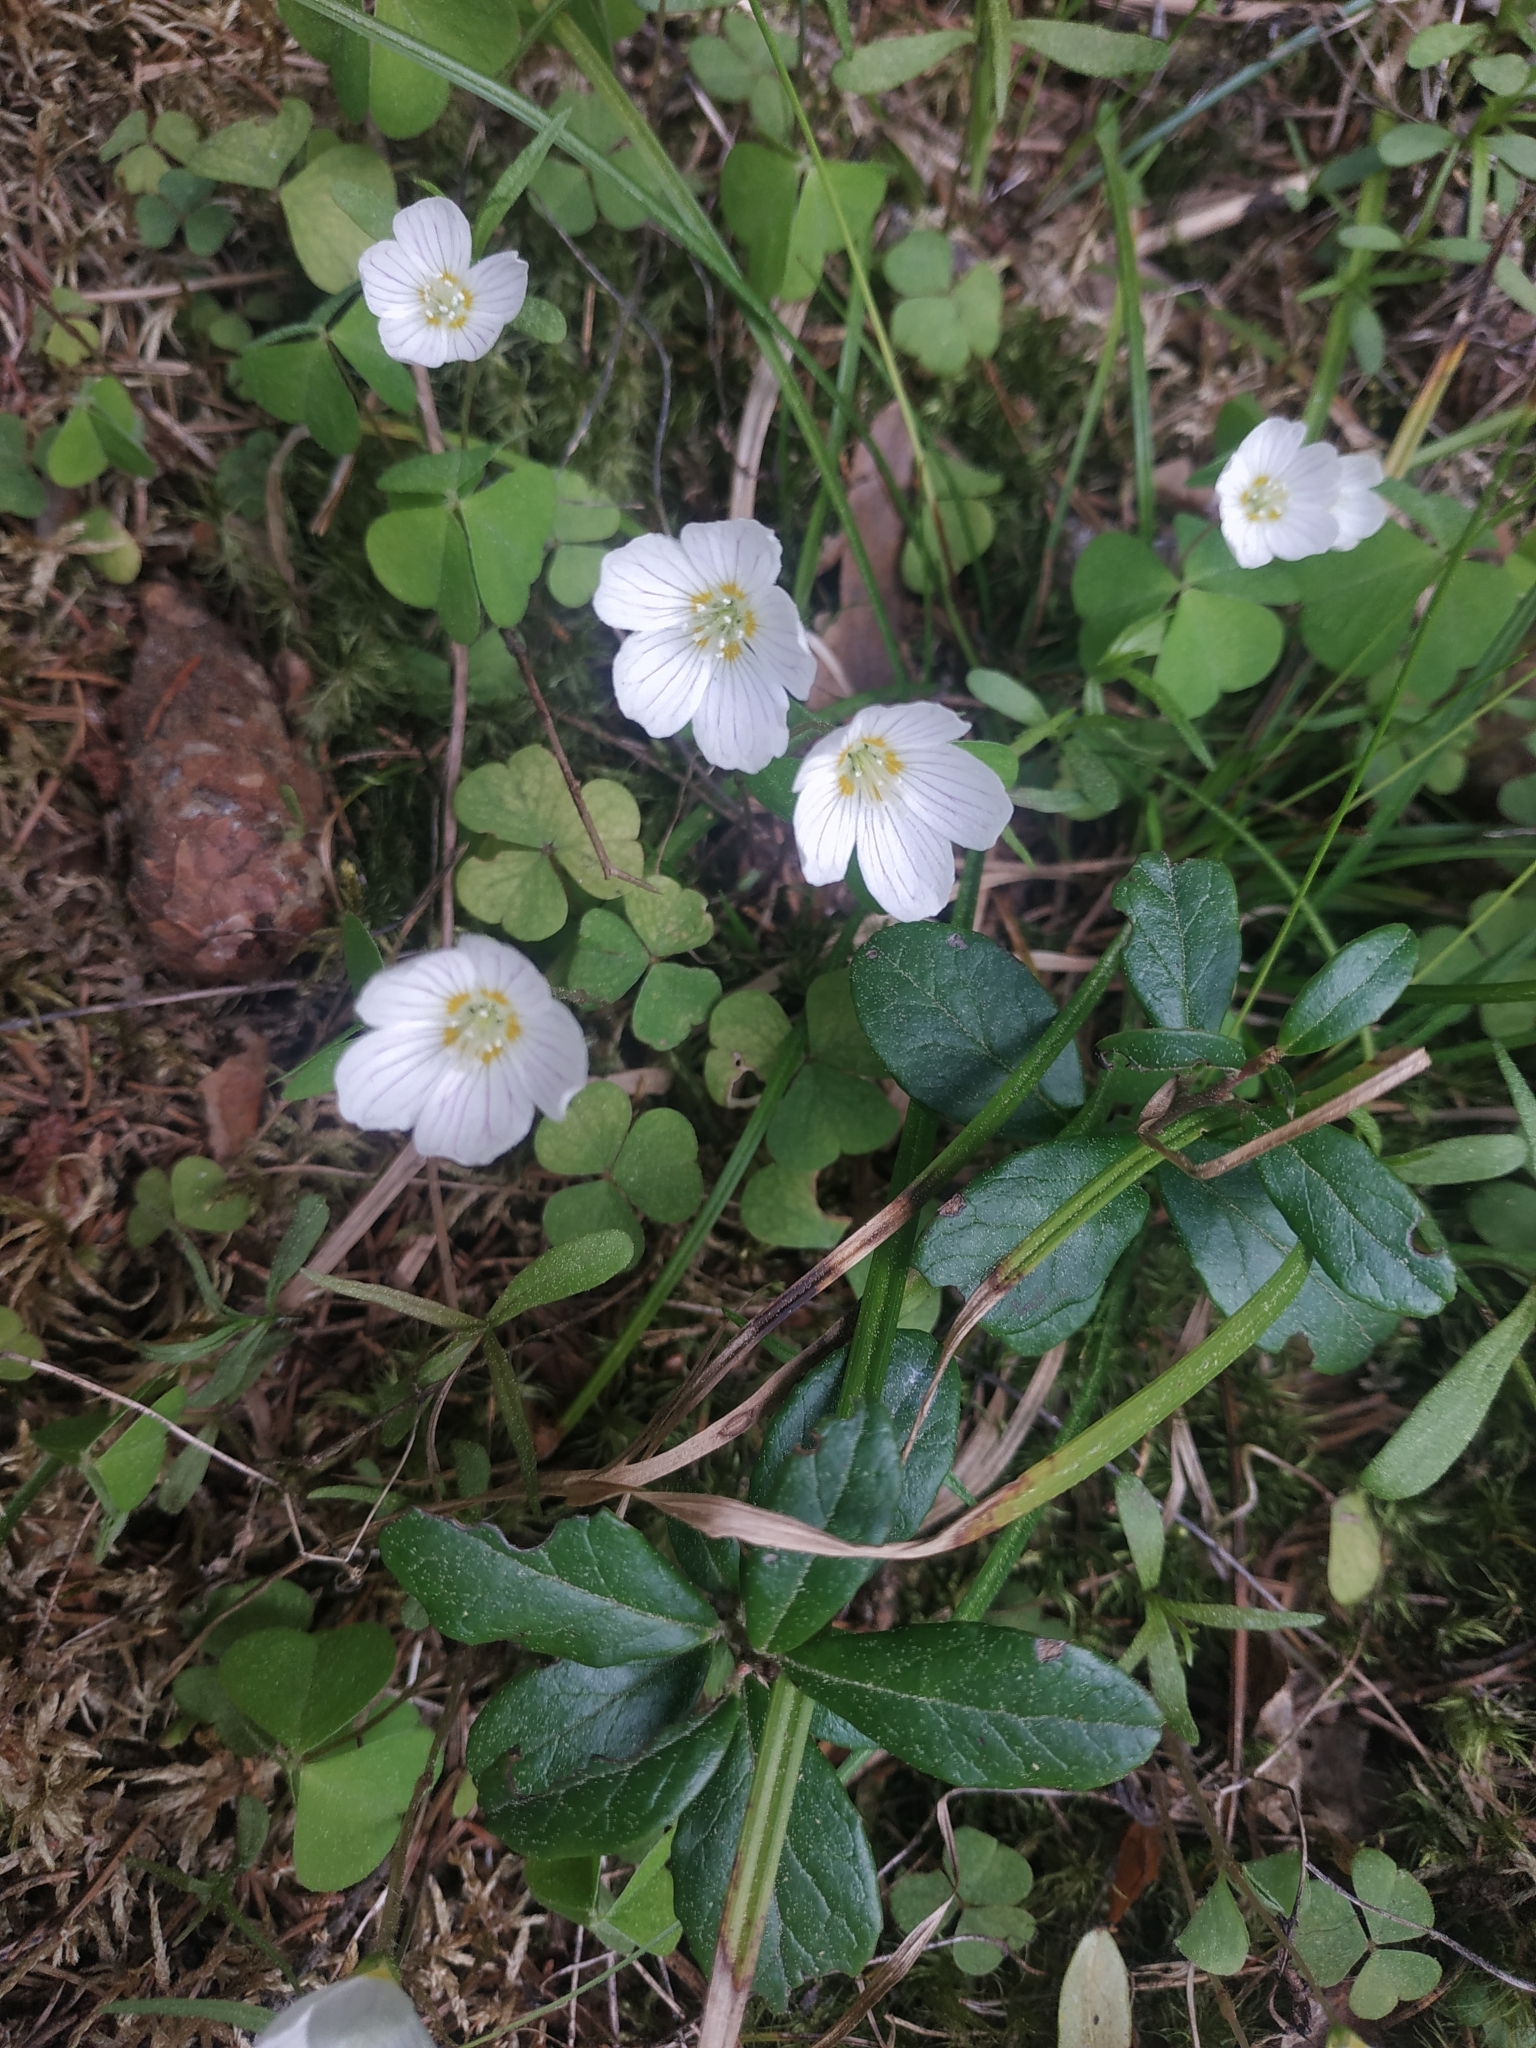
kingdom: Plantae
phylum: Tracheophyta
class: Magnoliopsida
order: Oxalidales
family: Oxalidaceae
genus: Oxalis
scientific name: Oxalis acetosella
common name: Wood-sorrel
